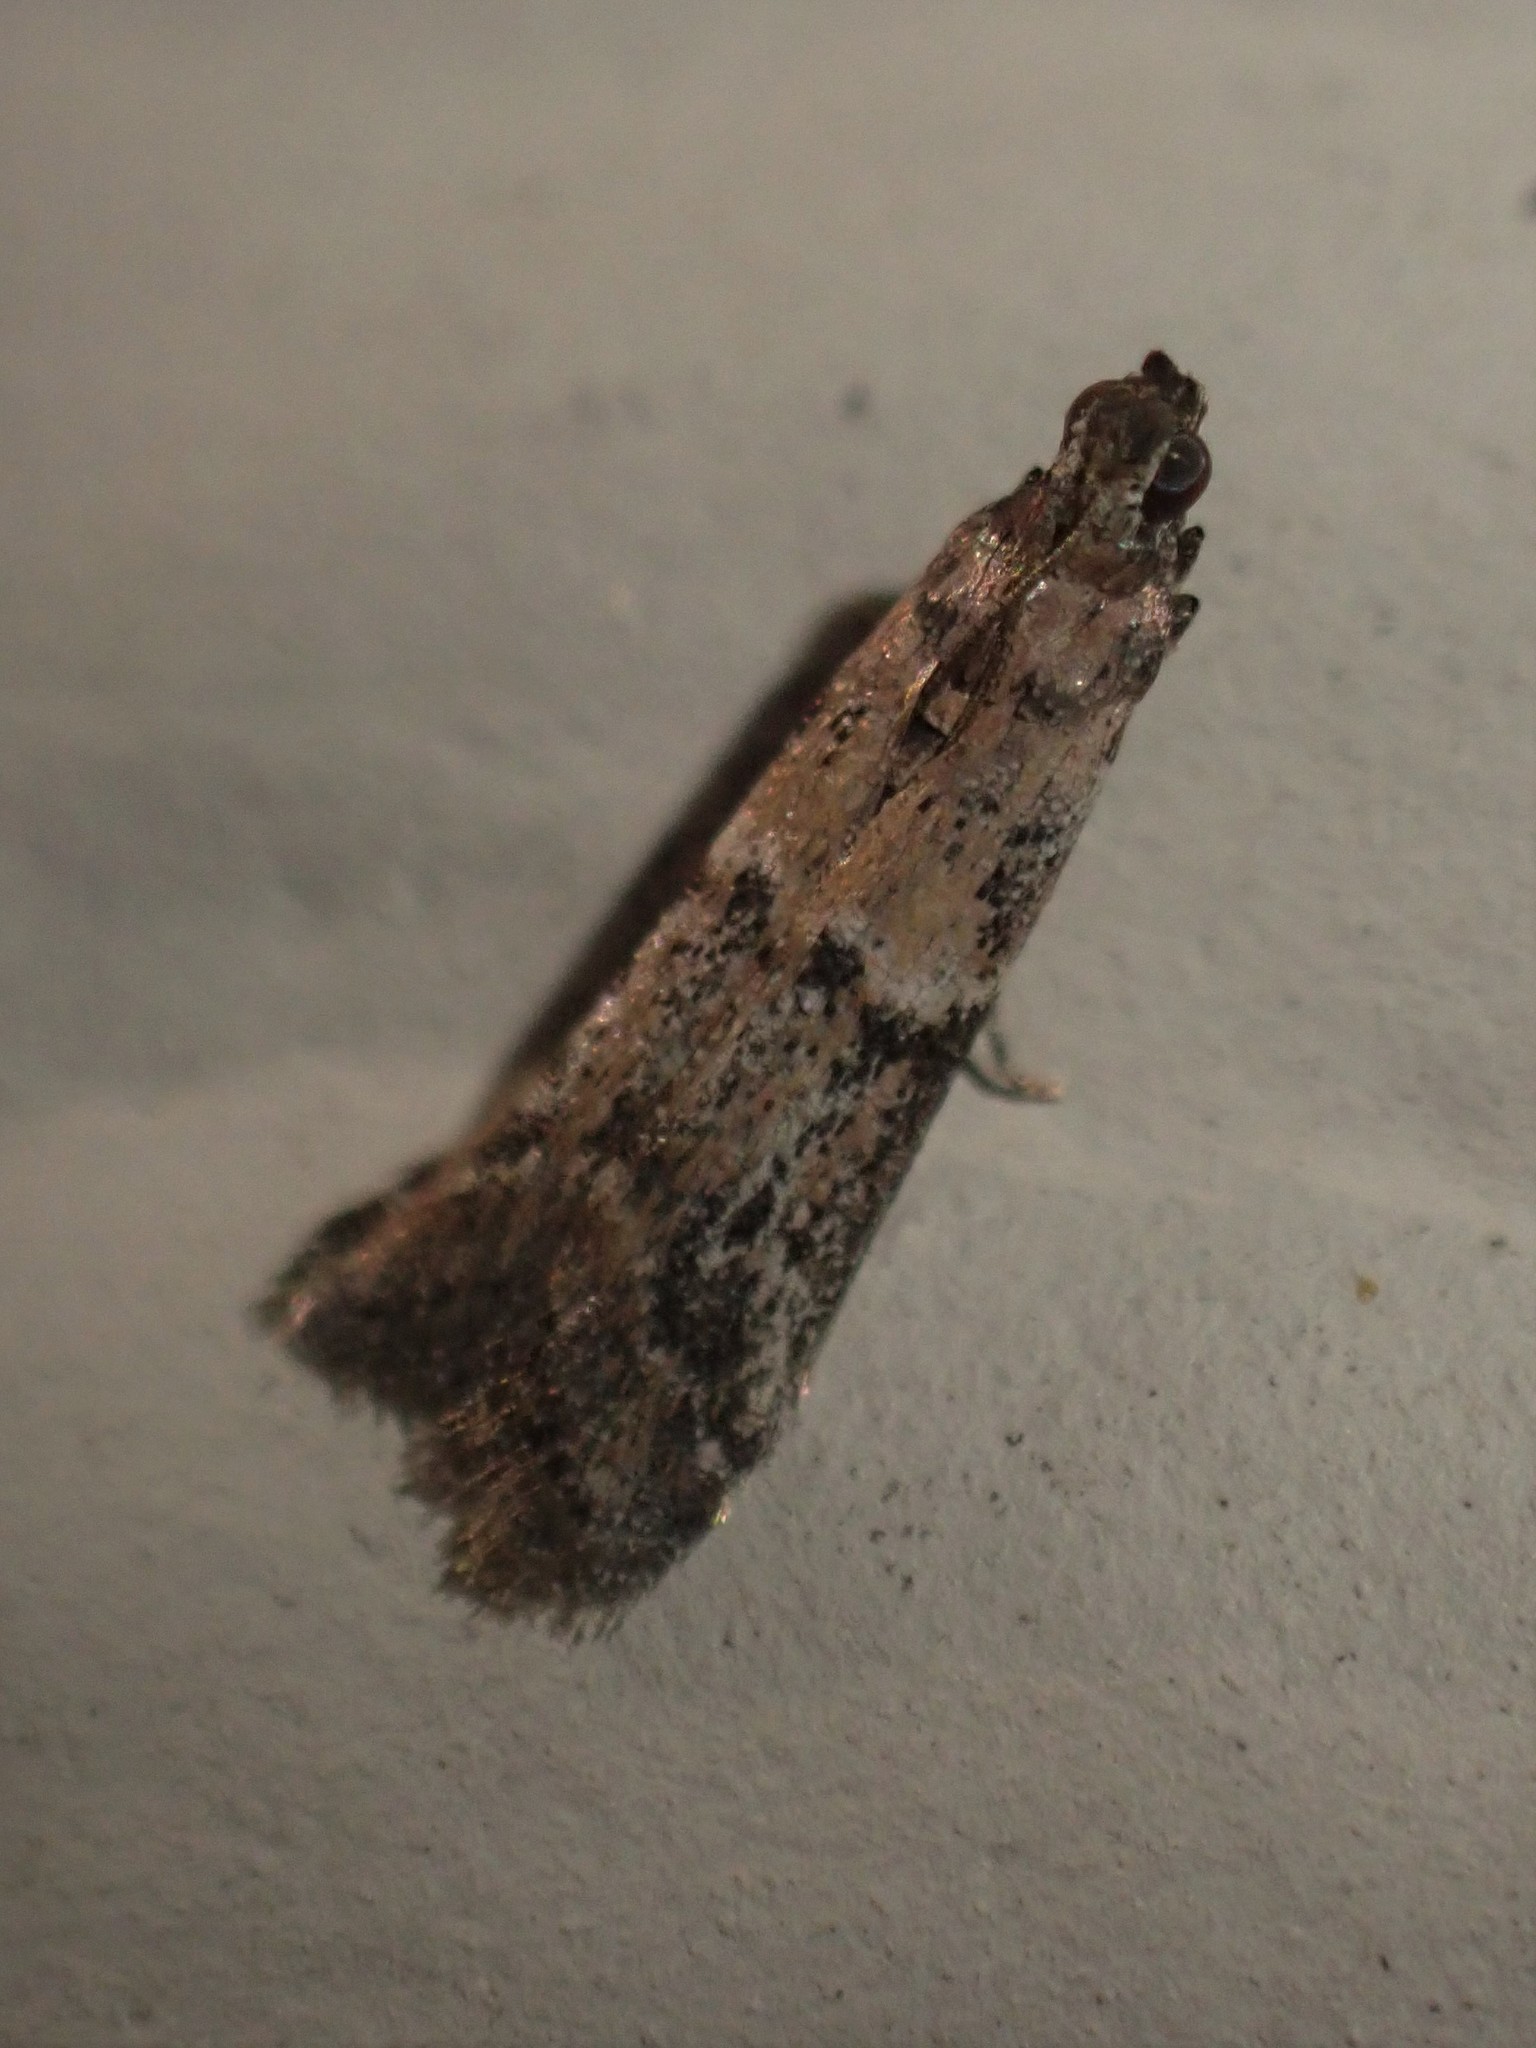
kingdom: Animalia
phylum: Arthropoda
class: Insecta
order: Lepidoptera
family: Pyralidae
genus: Ephestiodes
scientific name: Ephestiodes gilvescentella
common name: Moth
